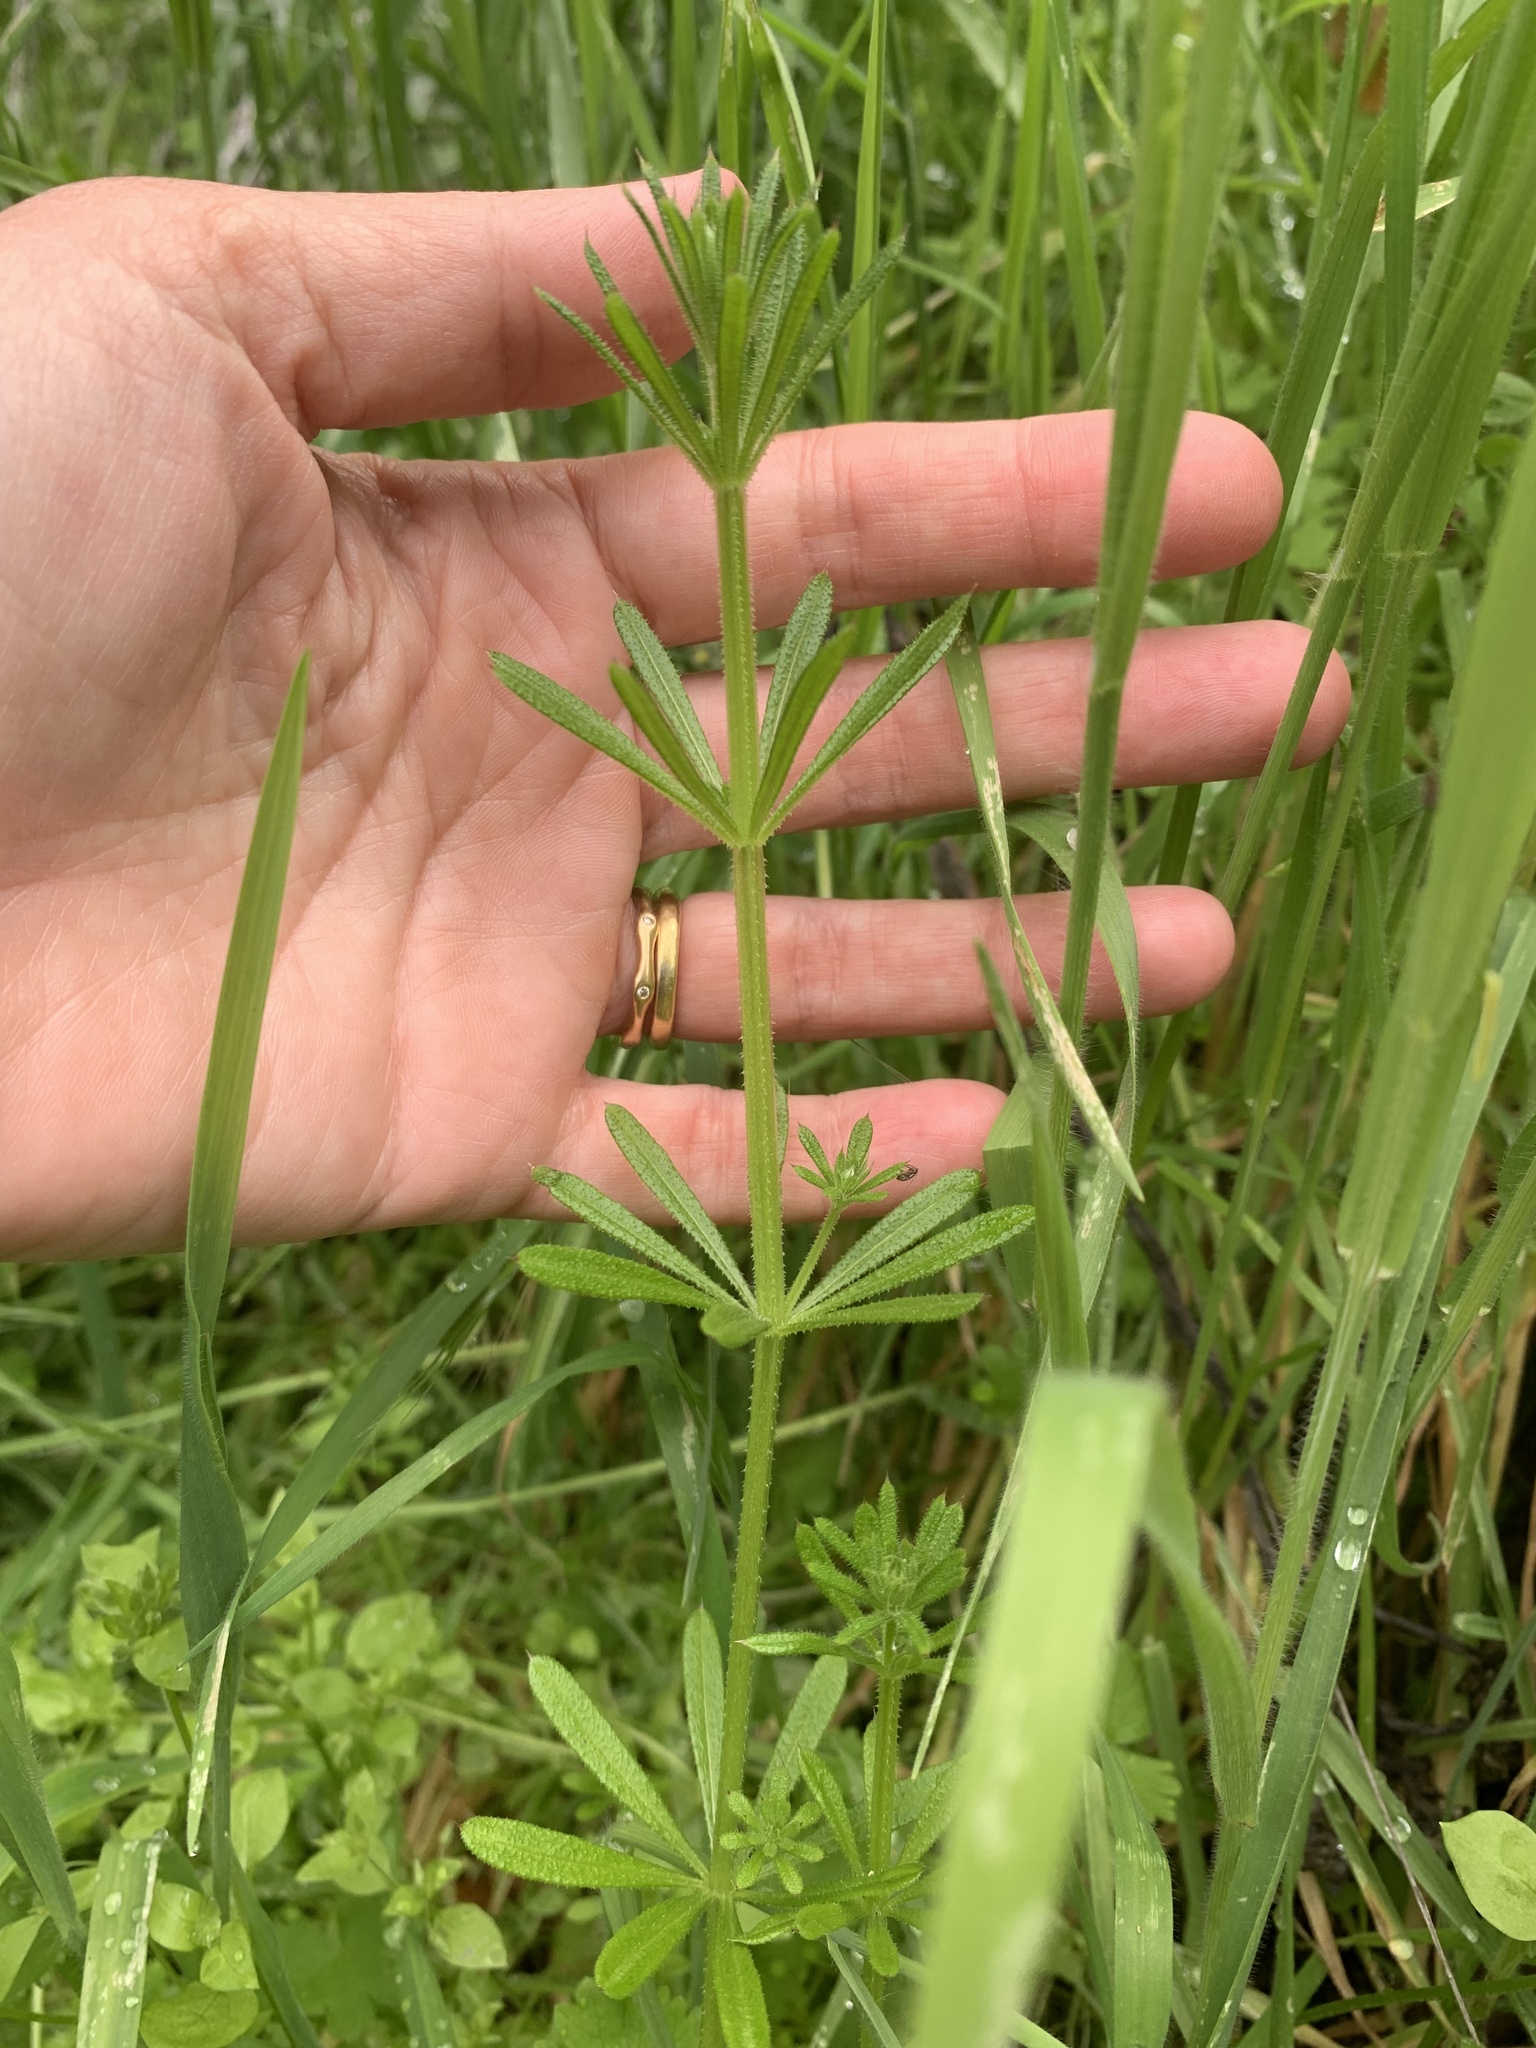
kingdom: Plantae
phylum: Tracheophyta
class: Magnoliopsida
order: Gentianales
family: Rubiaceae
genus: Galium
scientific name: Galium aparine
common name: Cleavers
